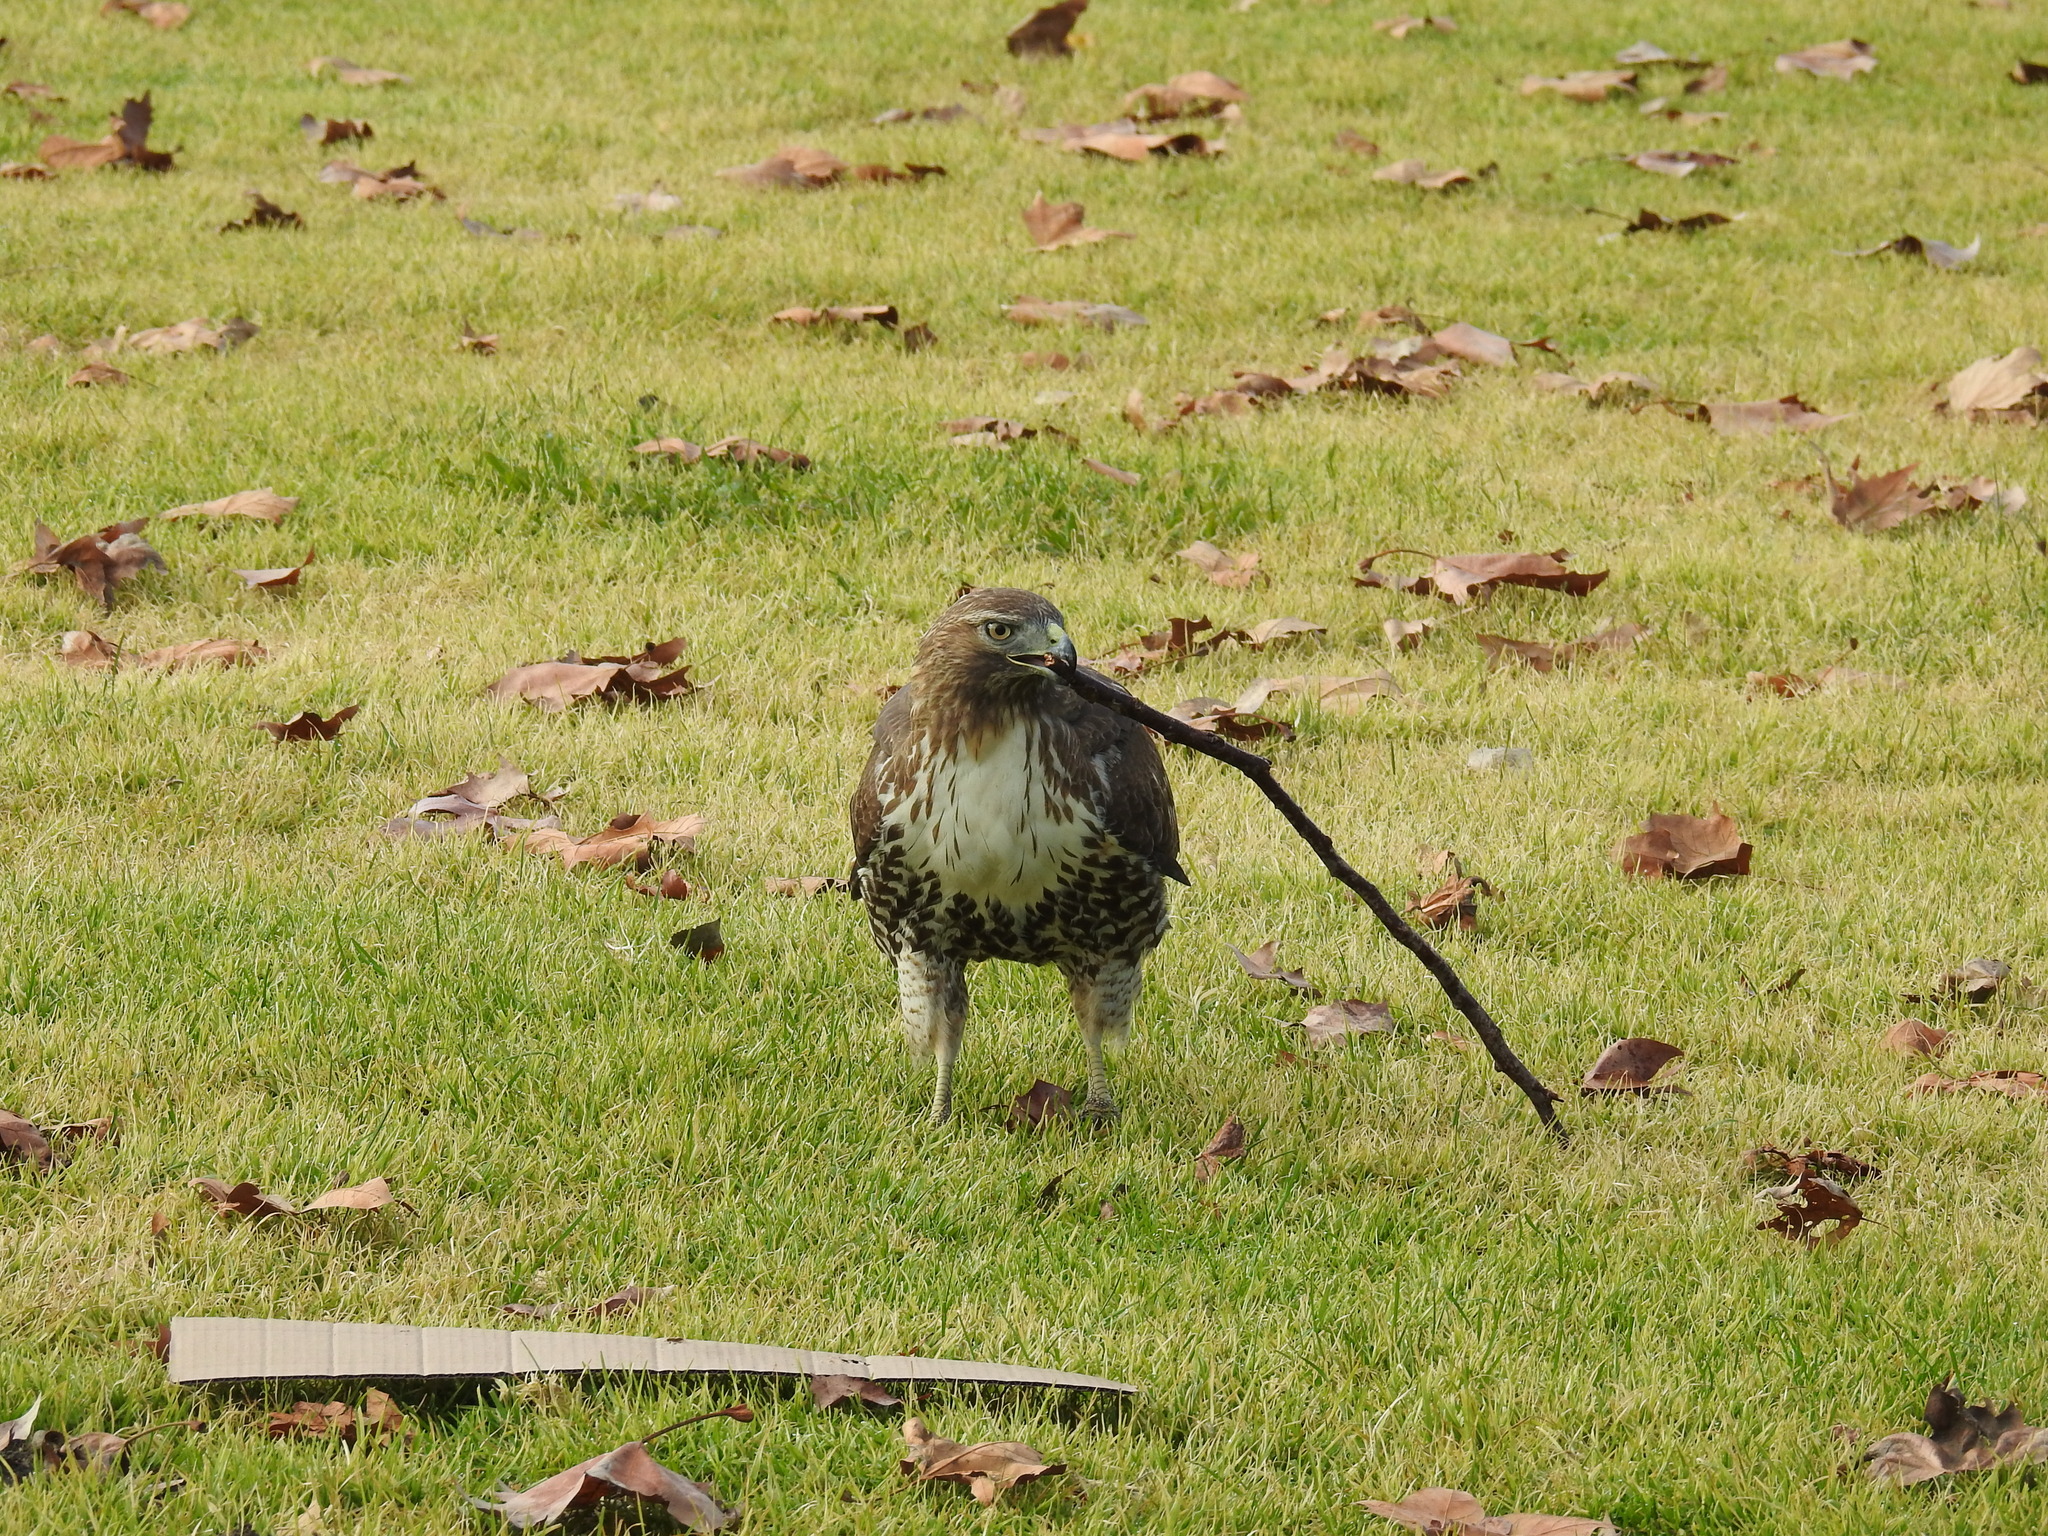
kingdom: Animalia
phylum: Chordata
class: Aves
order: Accipitriformes
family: Accipitridae
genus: Buteo
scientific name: Buteo jamaicensis
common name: Red-tailed hawk
